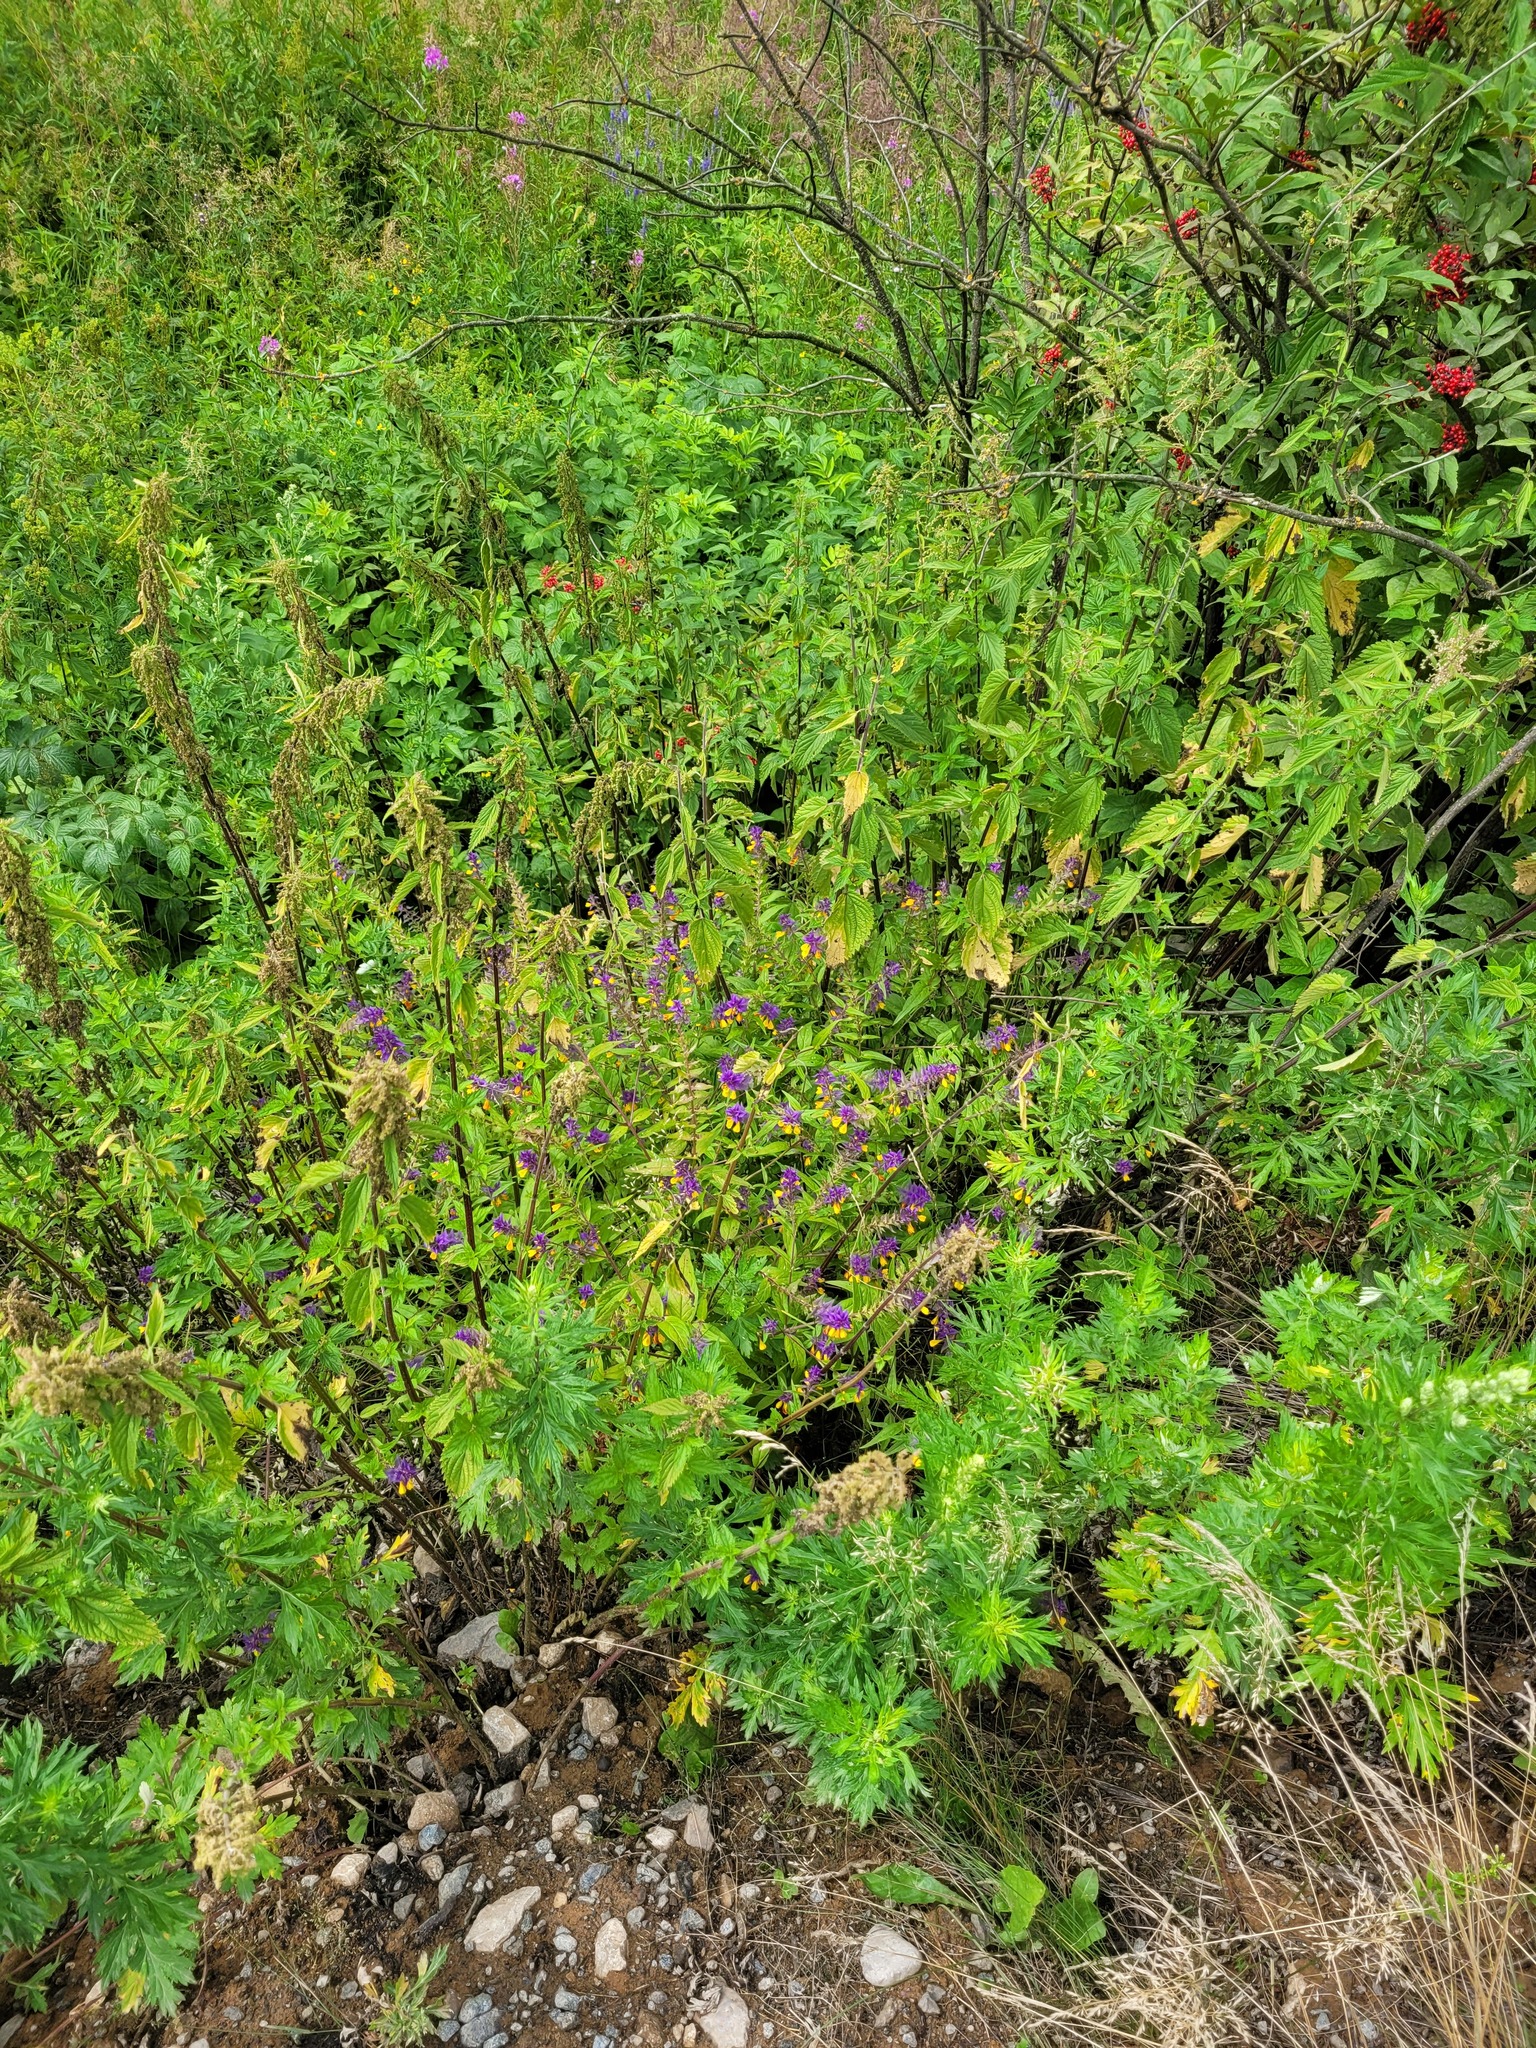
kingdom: Plantae
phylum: Tracheophyta
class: Magnoliopsida
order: Lamiales
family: Orobanchaceae
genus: Melampyrum
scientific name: Melampyrum nemorosum
